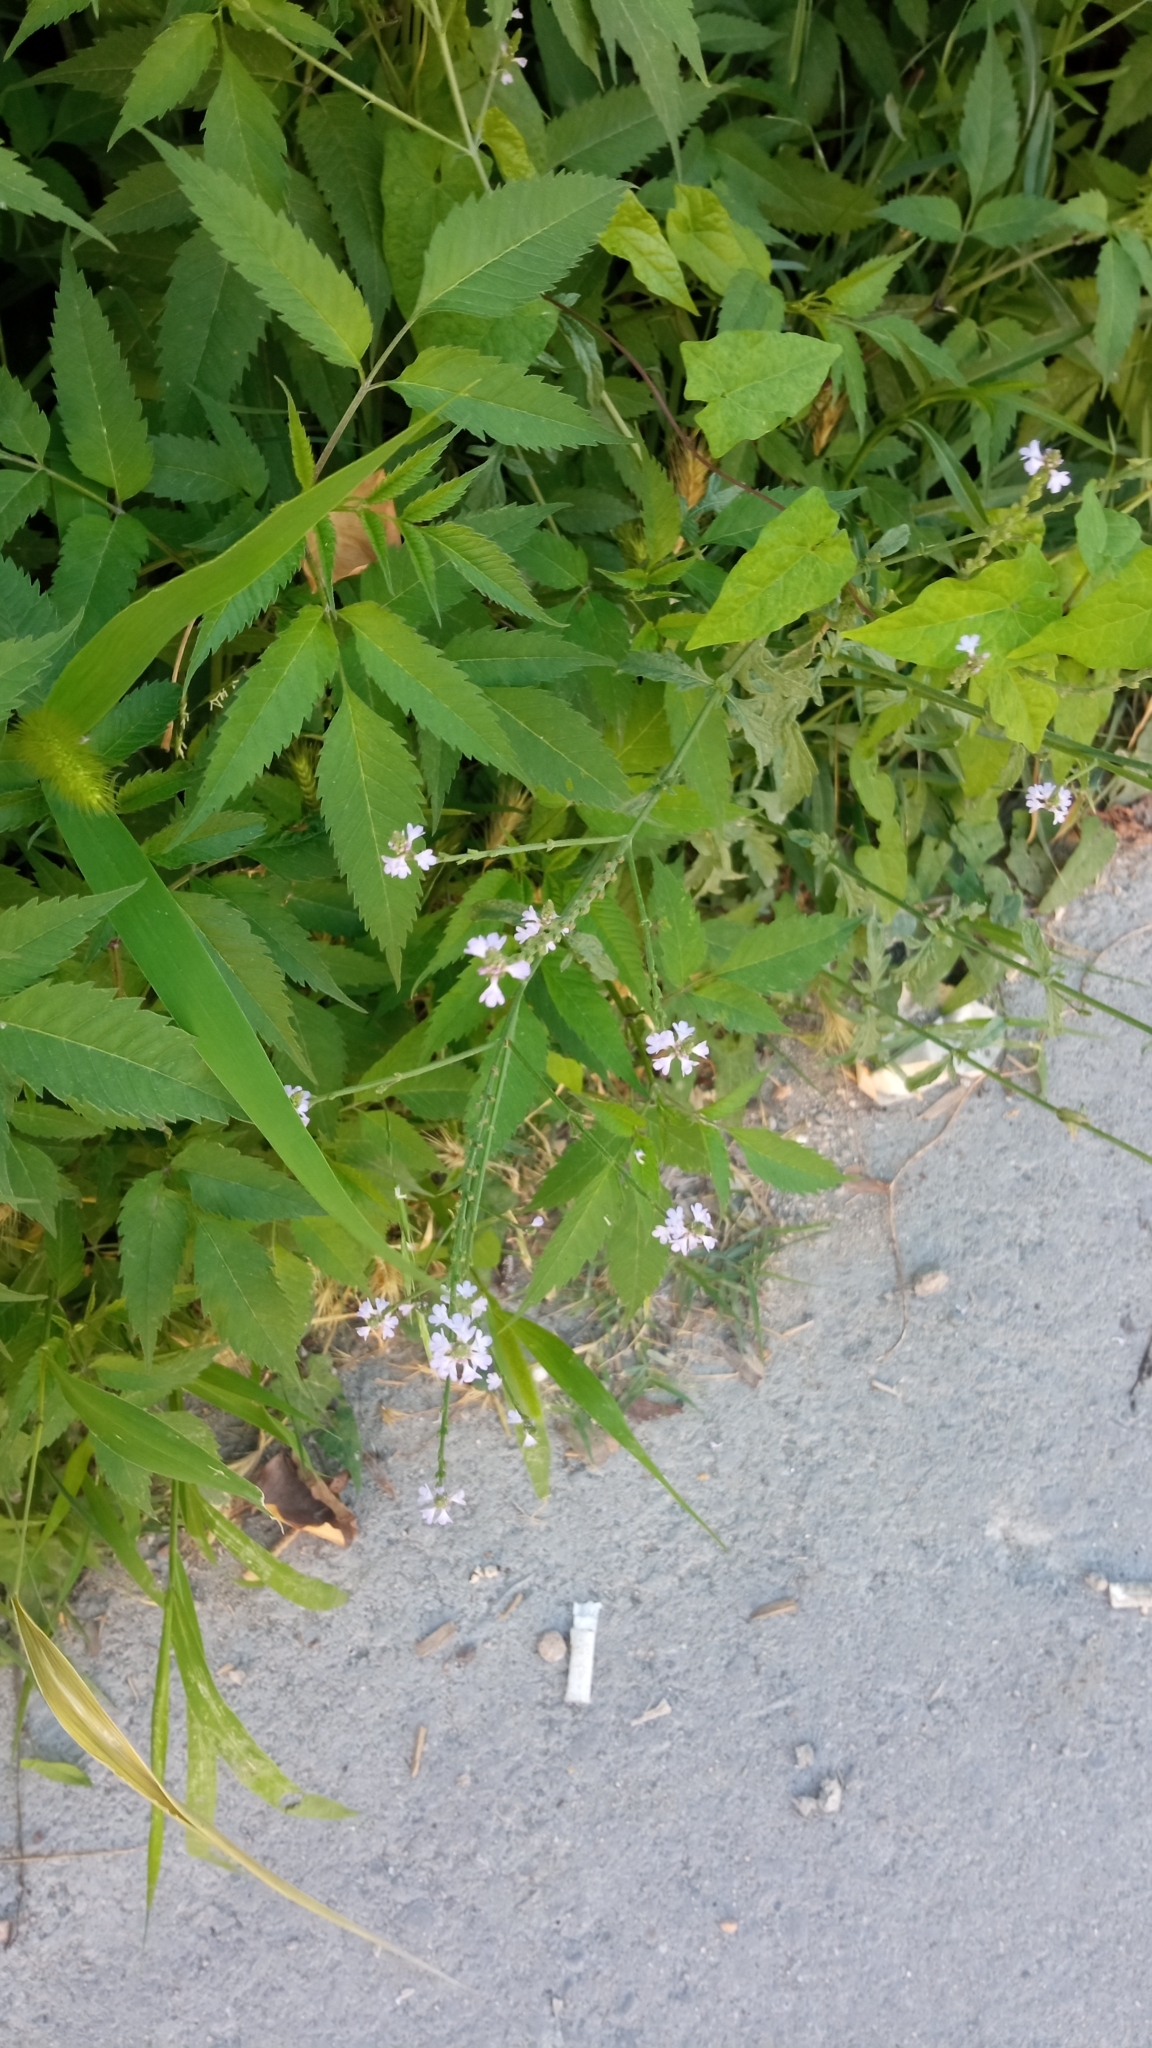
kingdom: Plantae
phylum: Tracheophyta
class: Magnoliopsida
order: Lamiales
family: Verbenaceae
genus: Verbena
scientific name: Verbena officinalis
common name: Vervain
